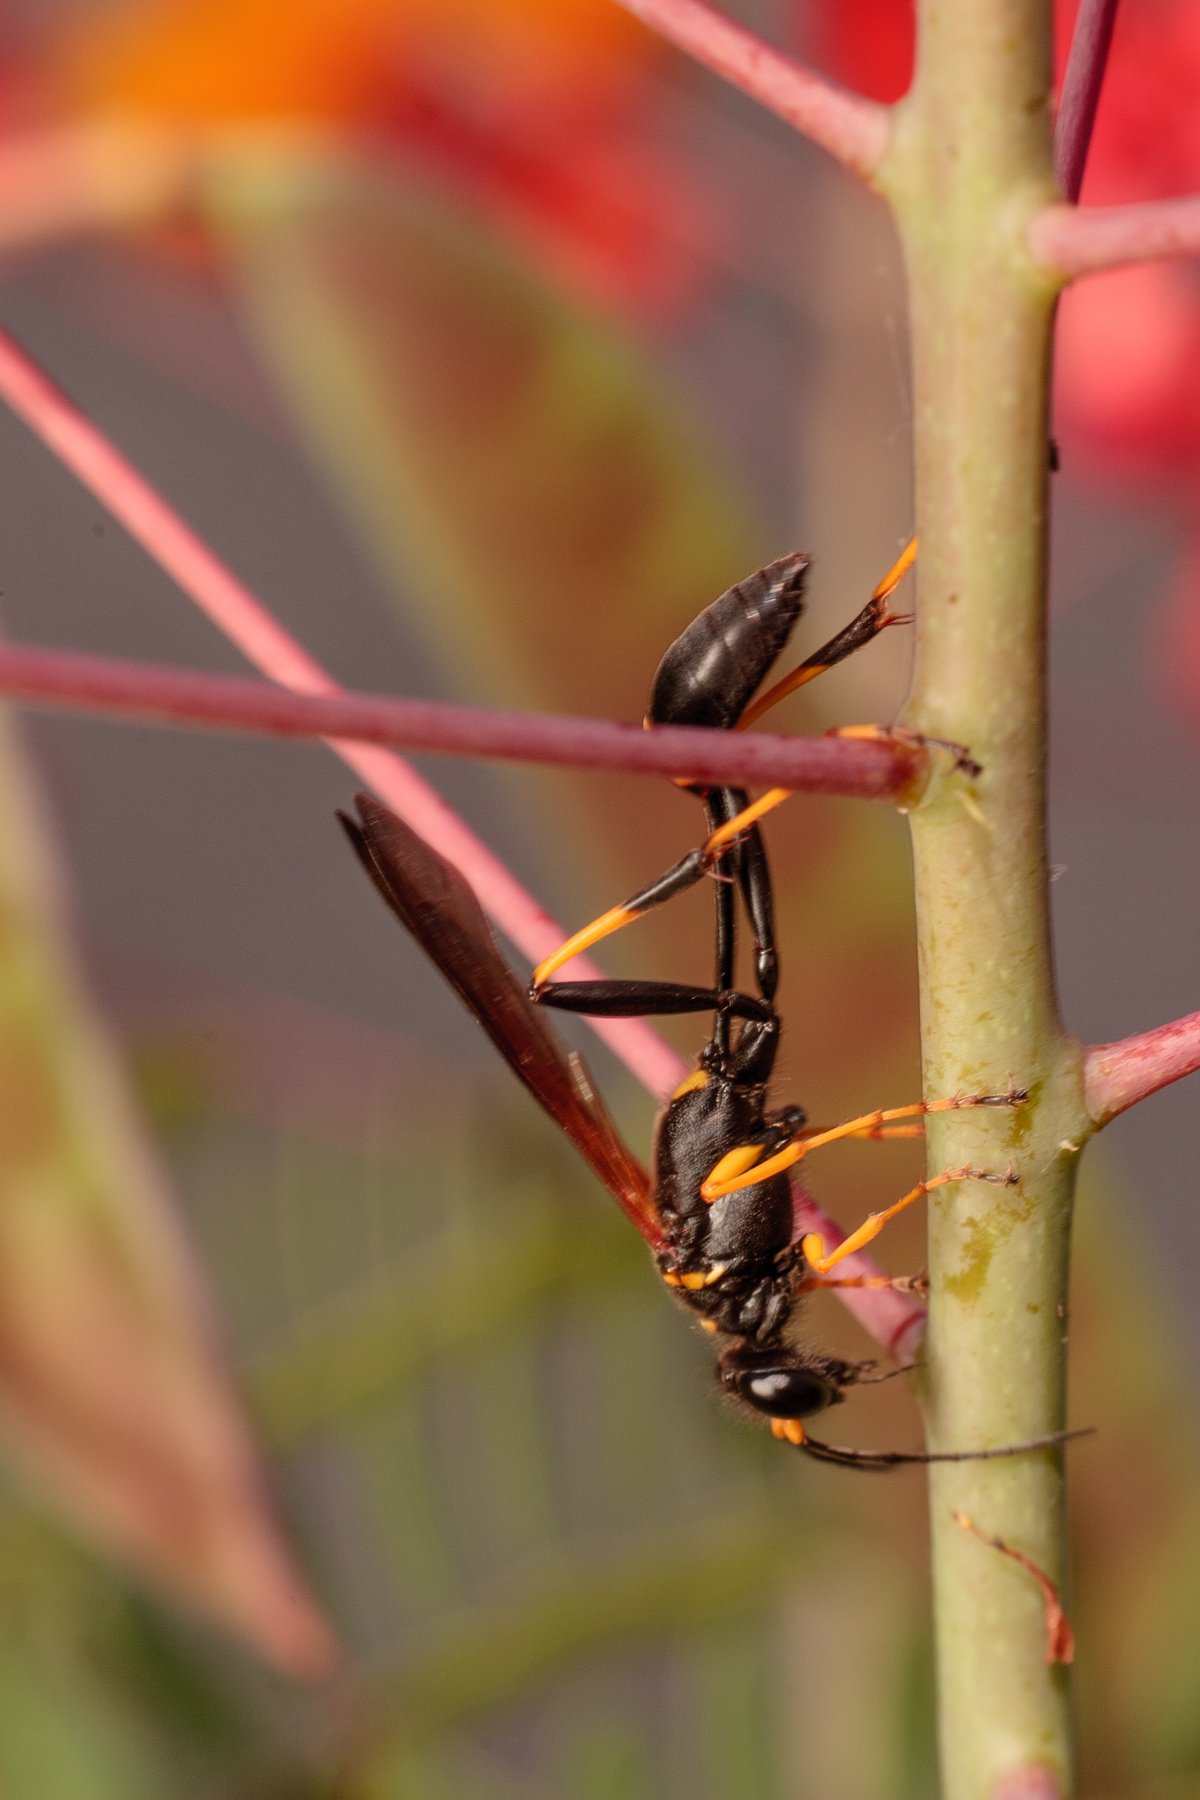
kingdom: Animalia
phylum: Arthropoda
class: Insecta
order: Hymenoptera
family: Sphecidae
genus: Sceliphron
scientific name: Sceliphron caementarium
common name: Mud dauber
